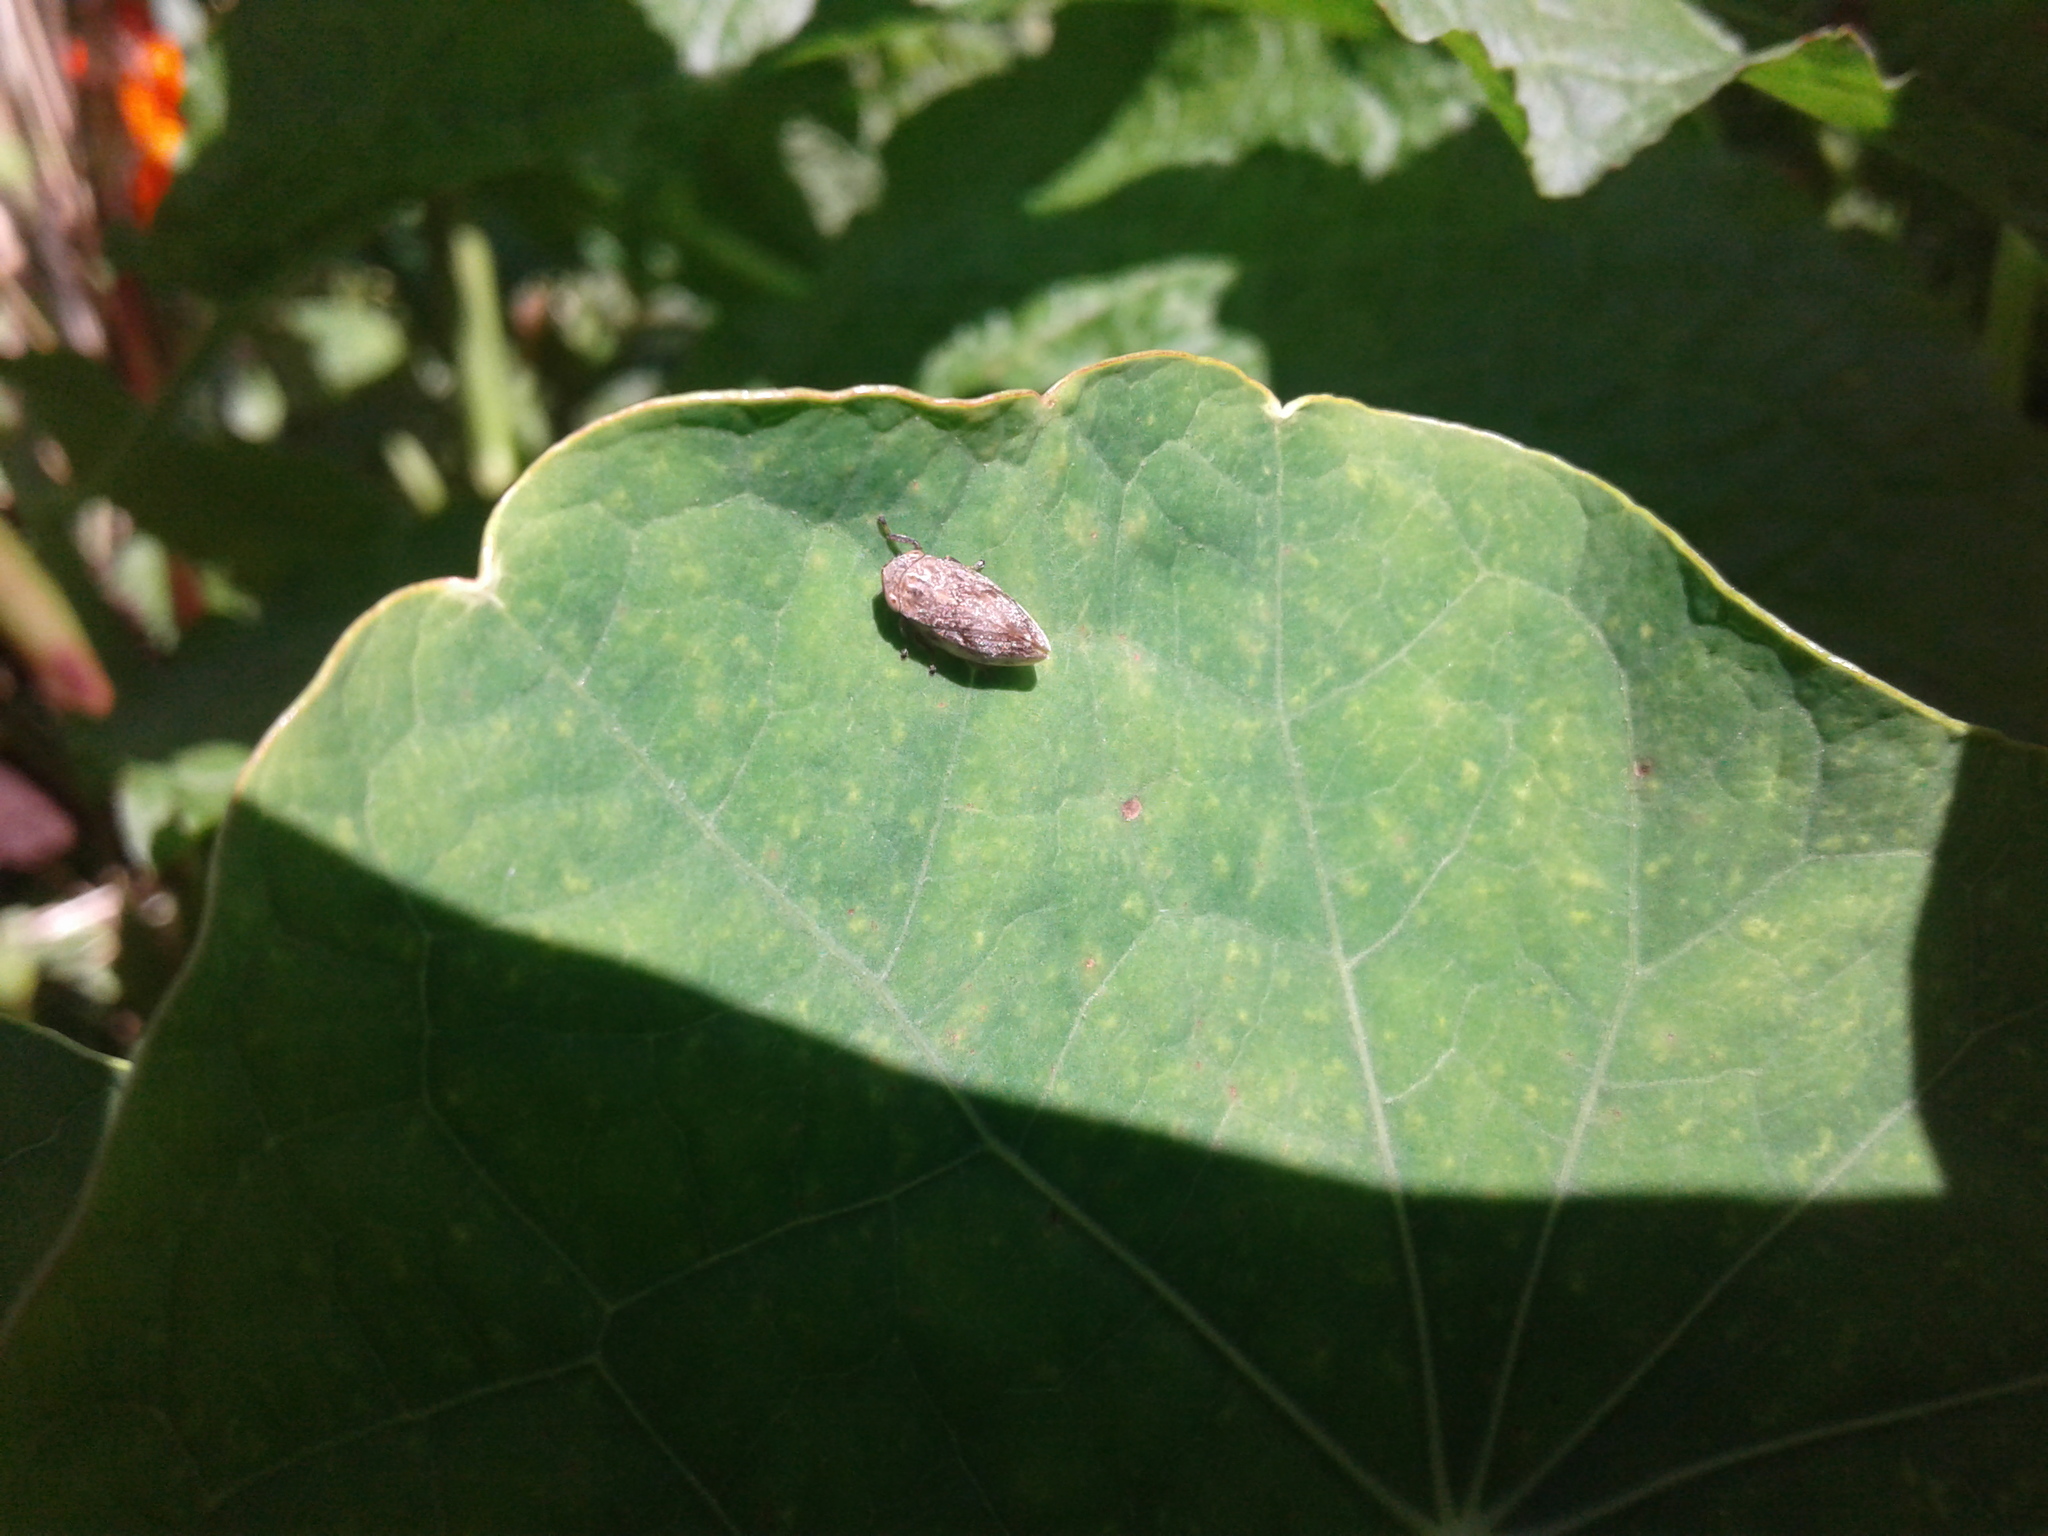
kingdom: Animalia
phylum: Arthropoda
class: Insecta
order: Hemiptera
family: Aphrophoridae
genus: Philaenus
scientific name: Philaenus spumarius
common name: Meadow spittlebug
